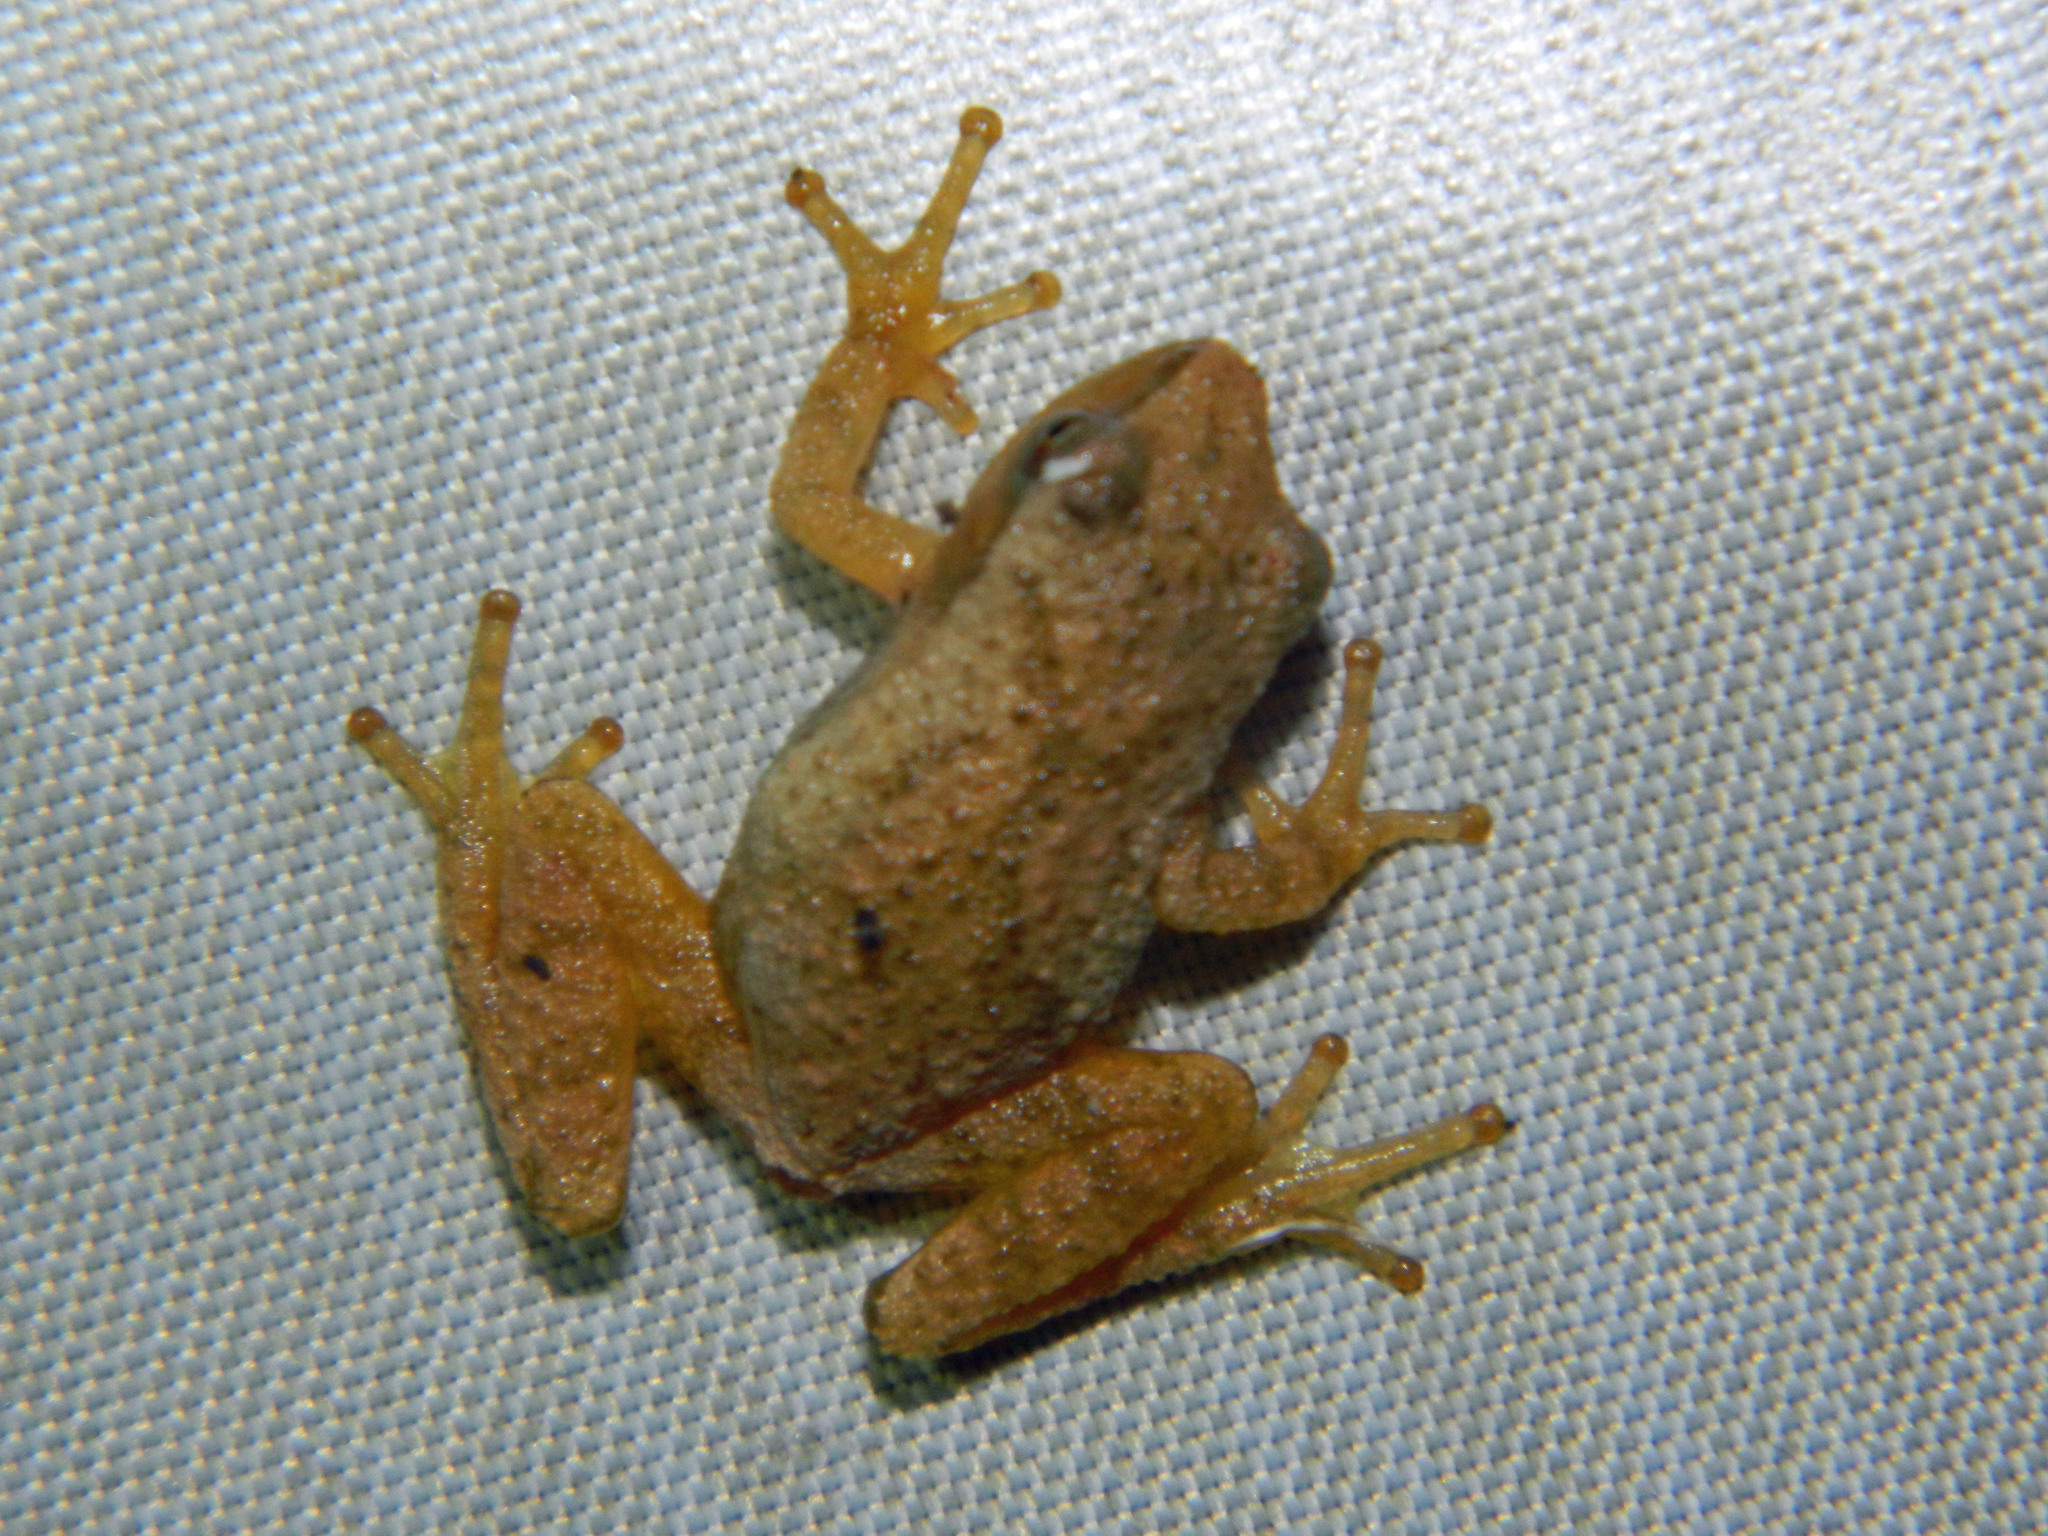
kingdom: Animalia
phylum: Chordata
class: Amphibia
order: Anura
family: Hylidae
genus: Pseudacris
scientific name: Pseudacris crucifer
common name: Spring peeper
